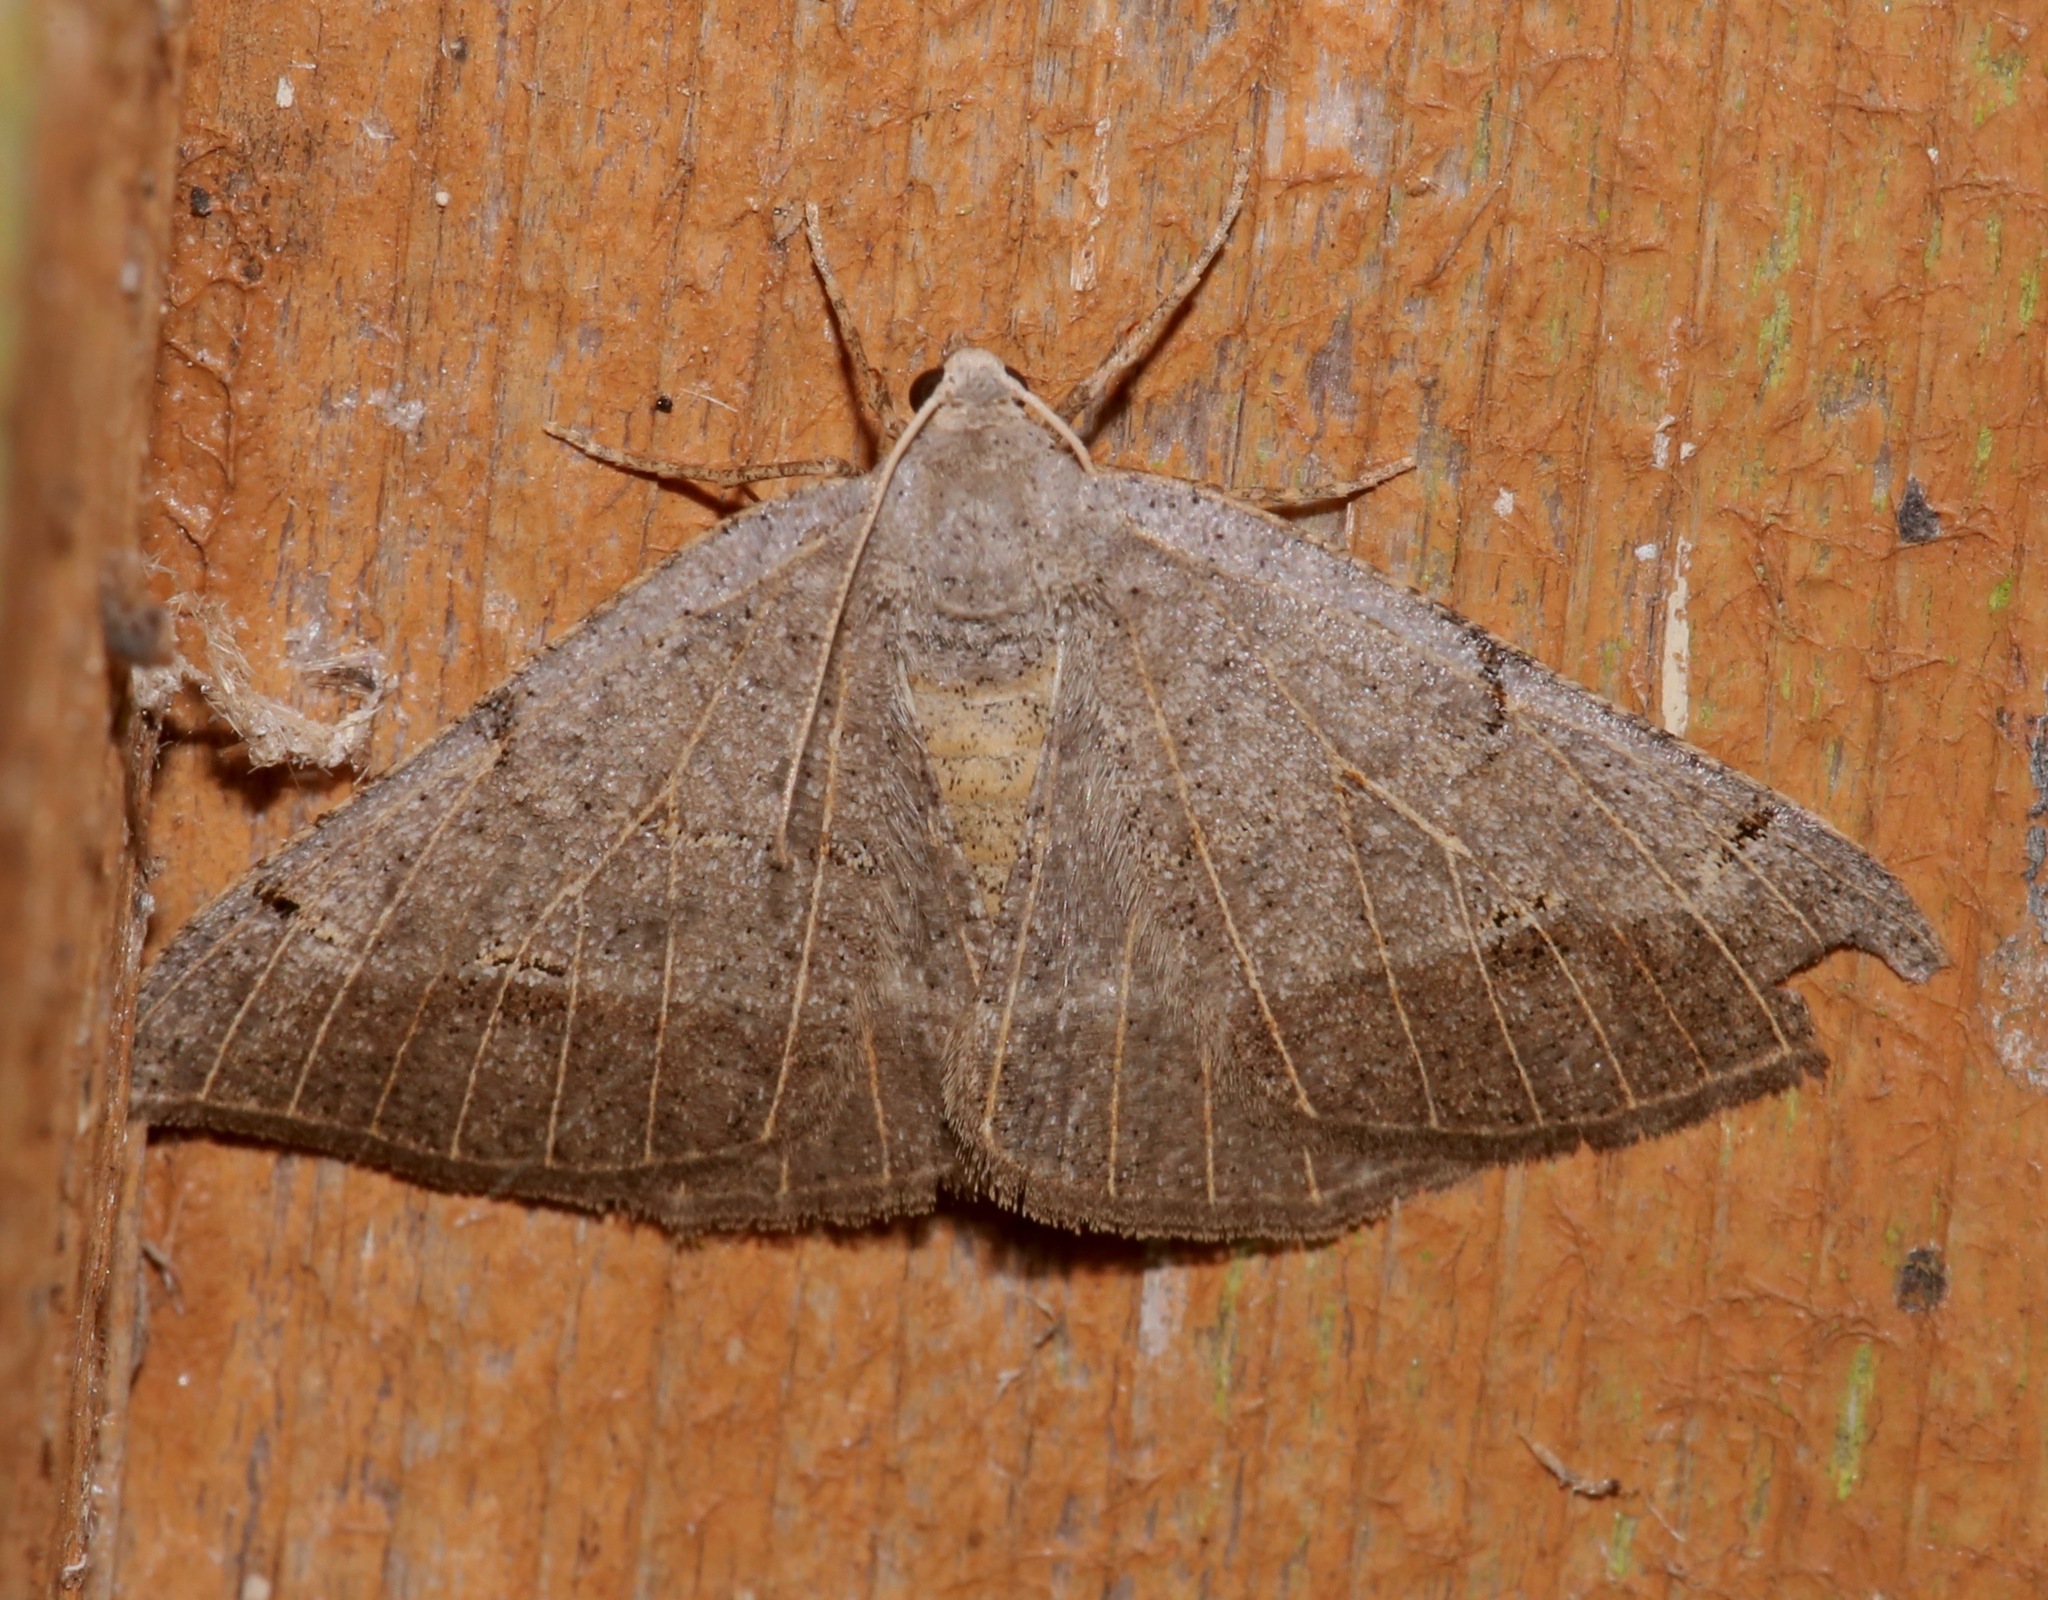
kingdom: Animalia
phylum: Arthropoda
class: Insecta
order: Lepidoptera
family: Geometridae
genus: Isturgia
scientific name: Isturgia dislocaria
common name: Pale-viened enconista
